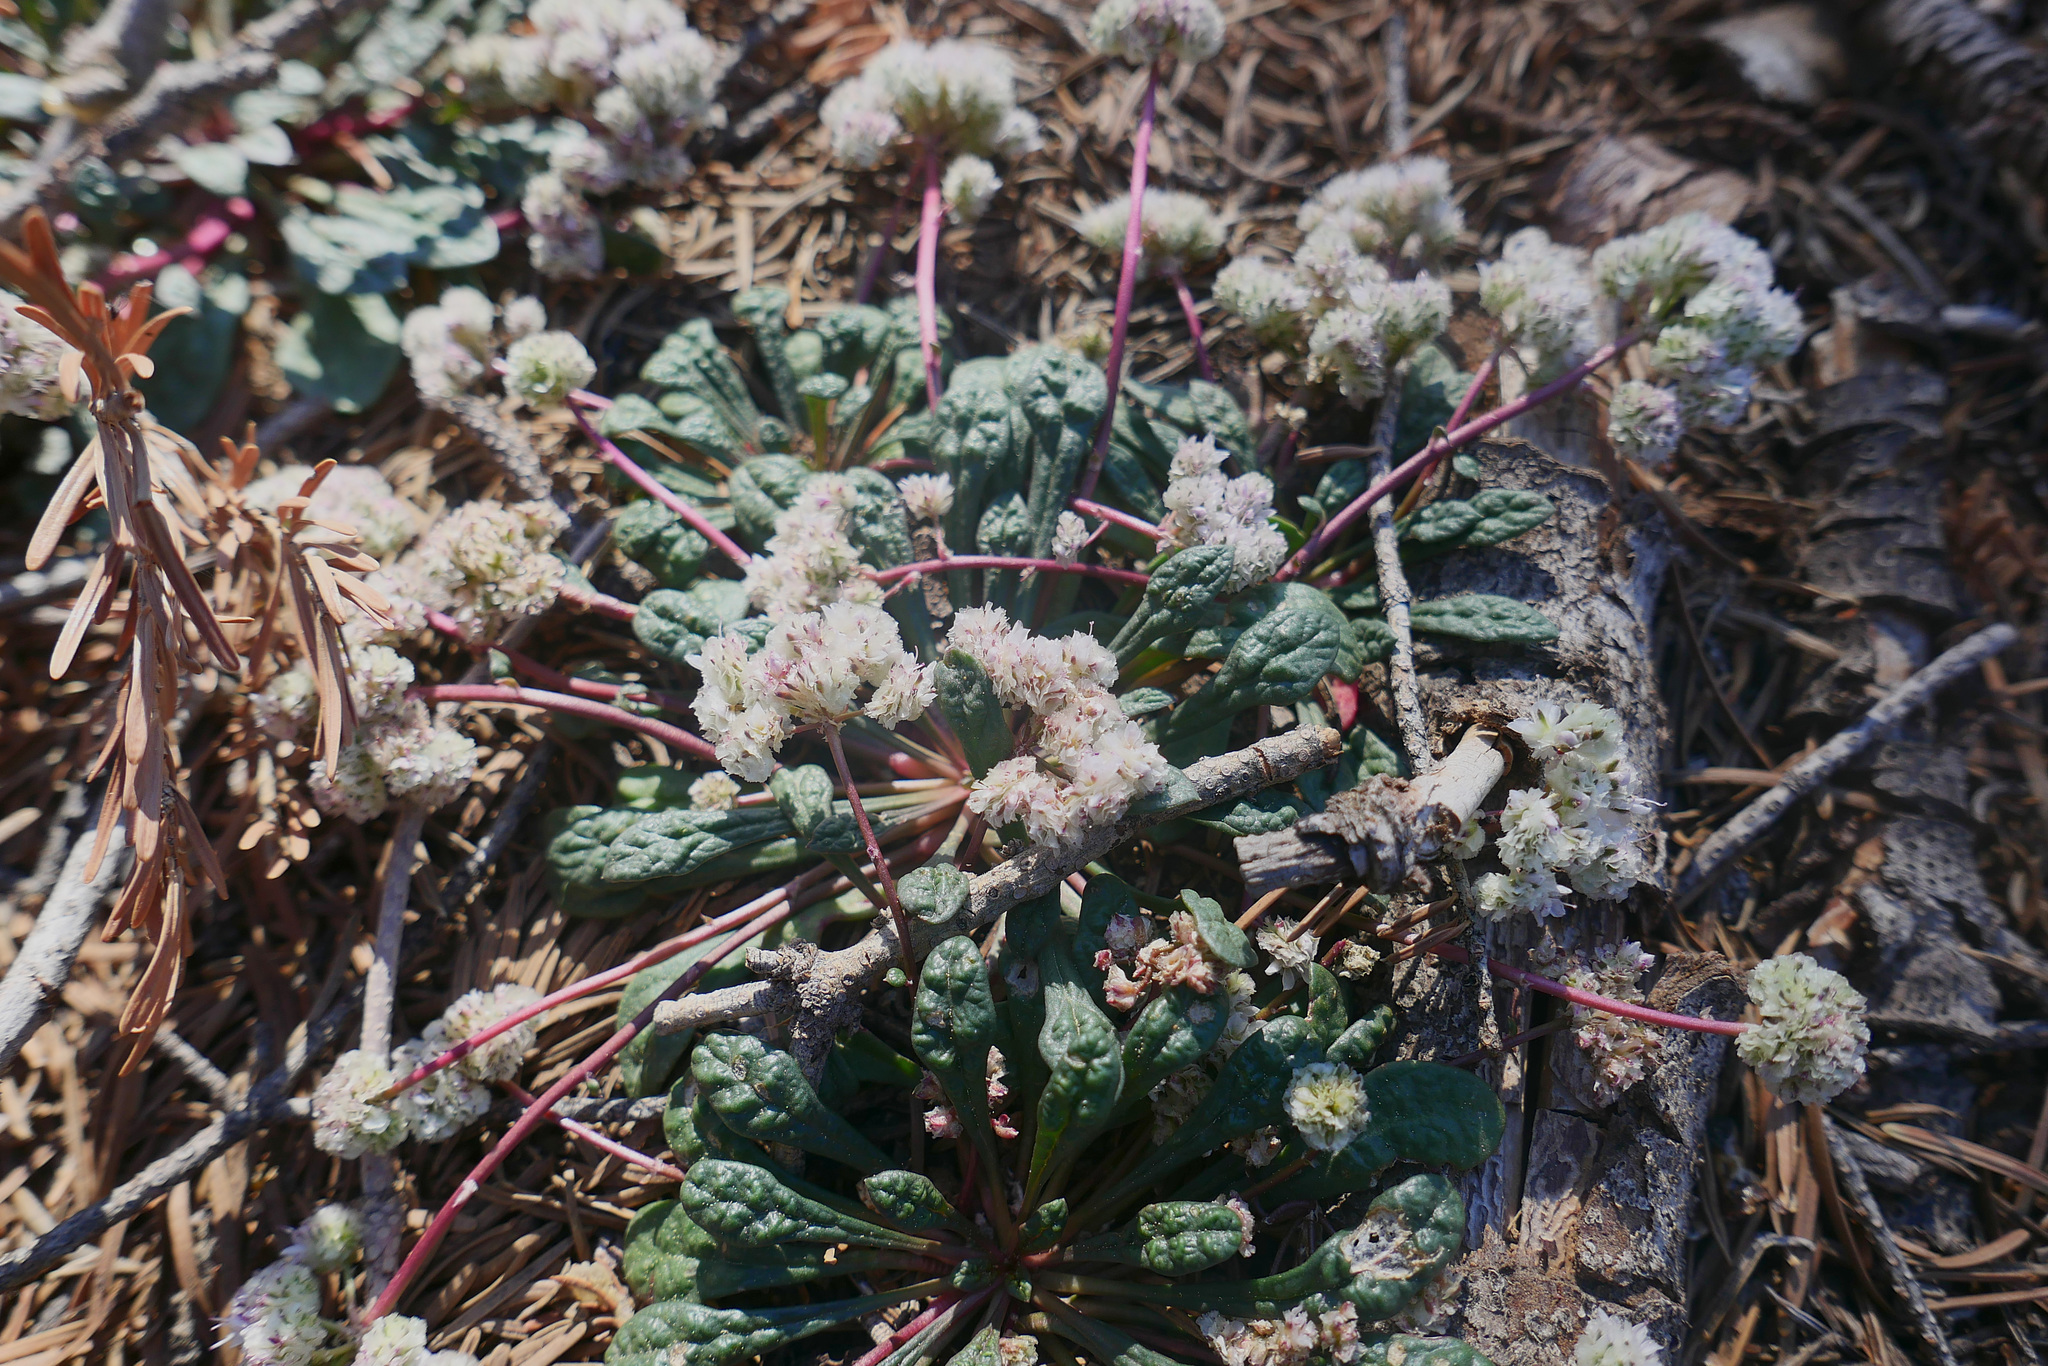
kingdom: Plantae
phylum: Tracheophyta
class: Magnoliopsida
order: Caryophyllales
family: Montiaceae
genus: Calyptridium
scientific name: Calyptridium monospermum
